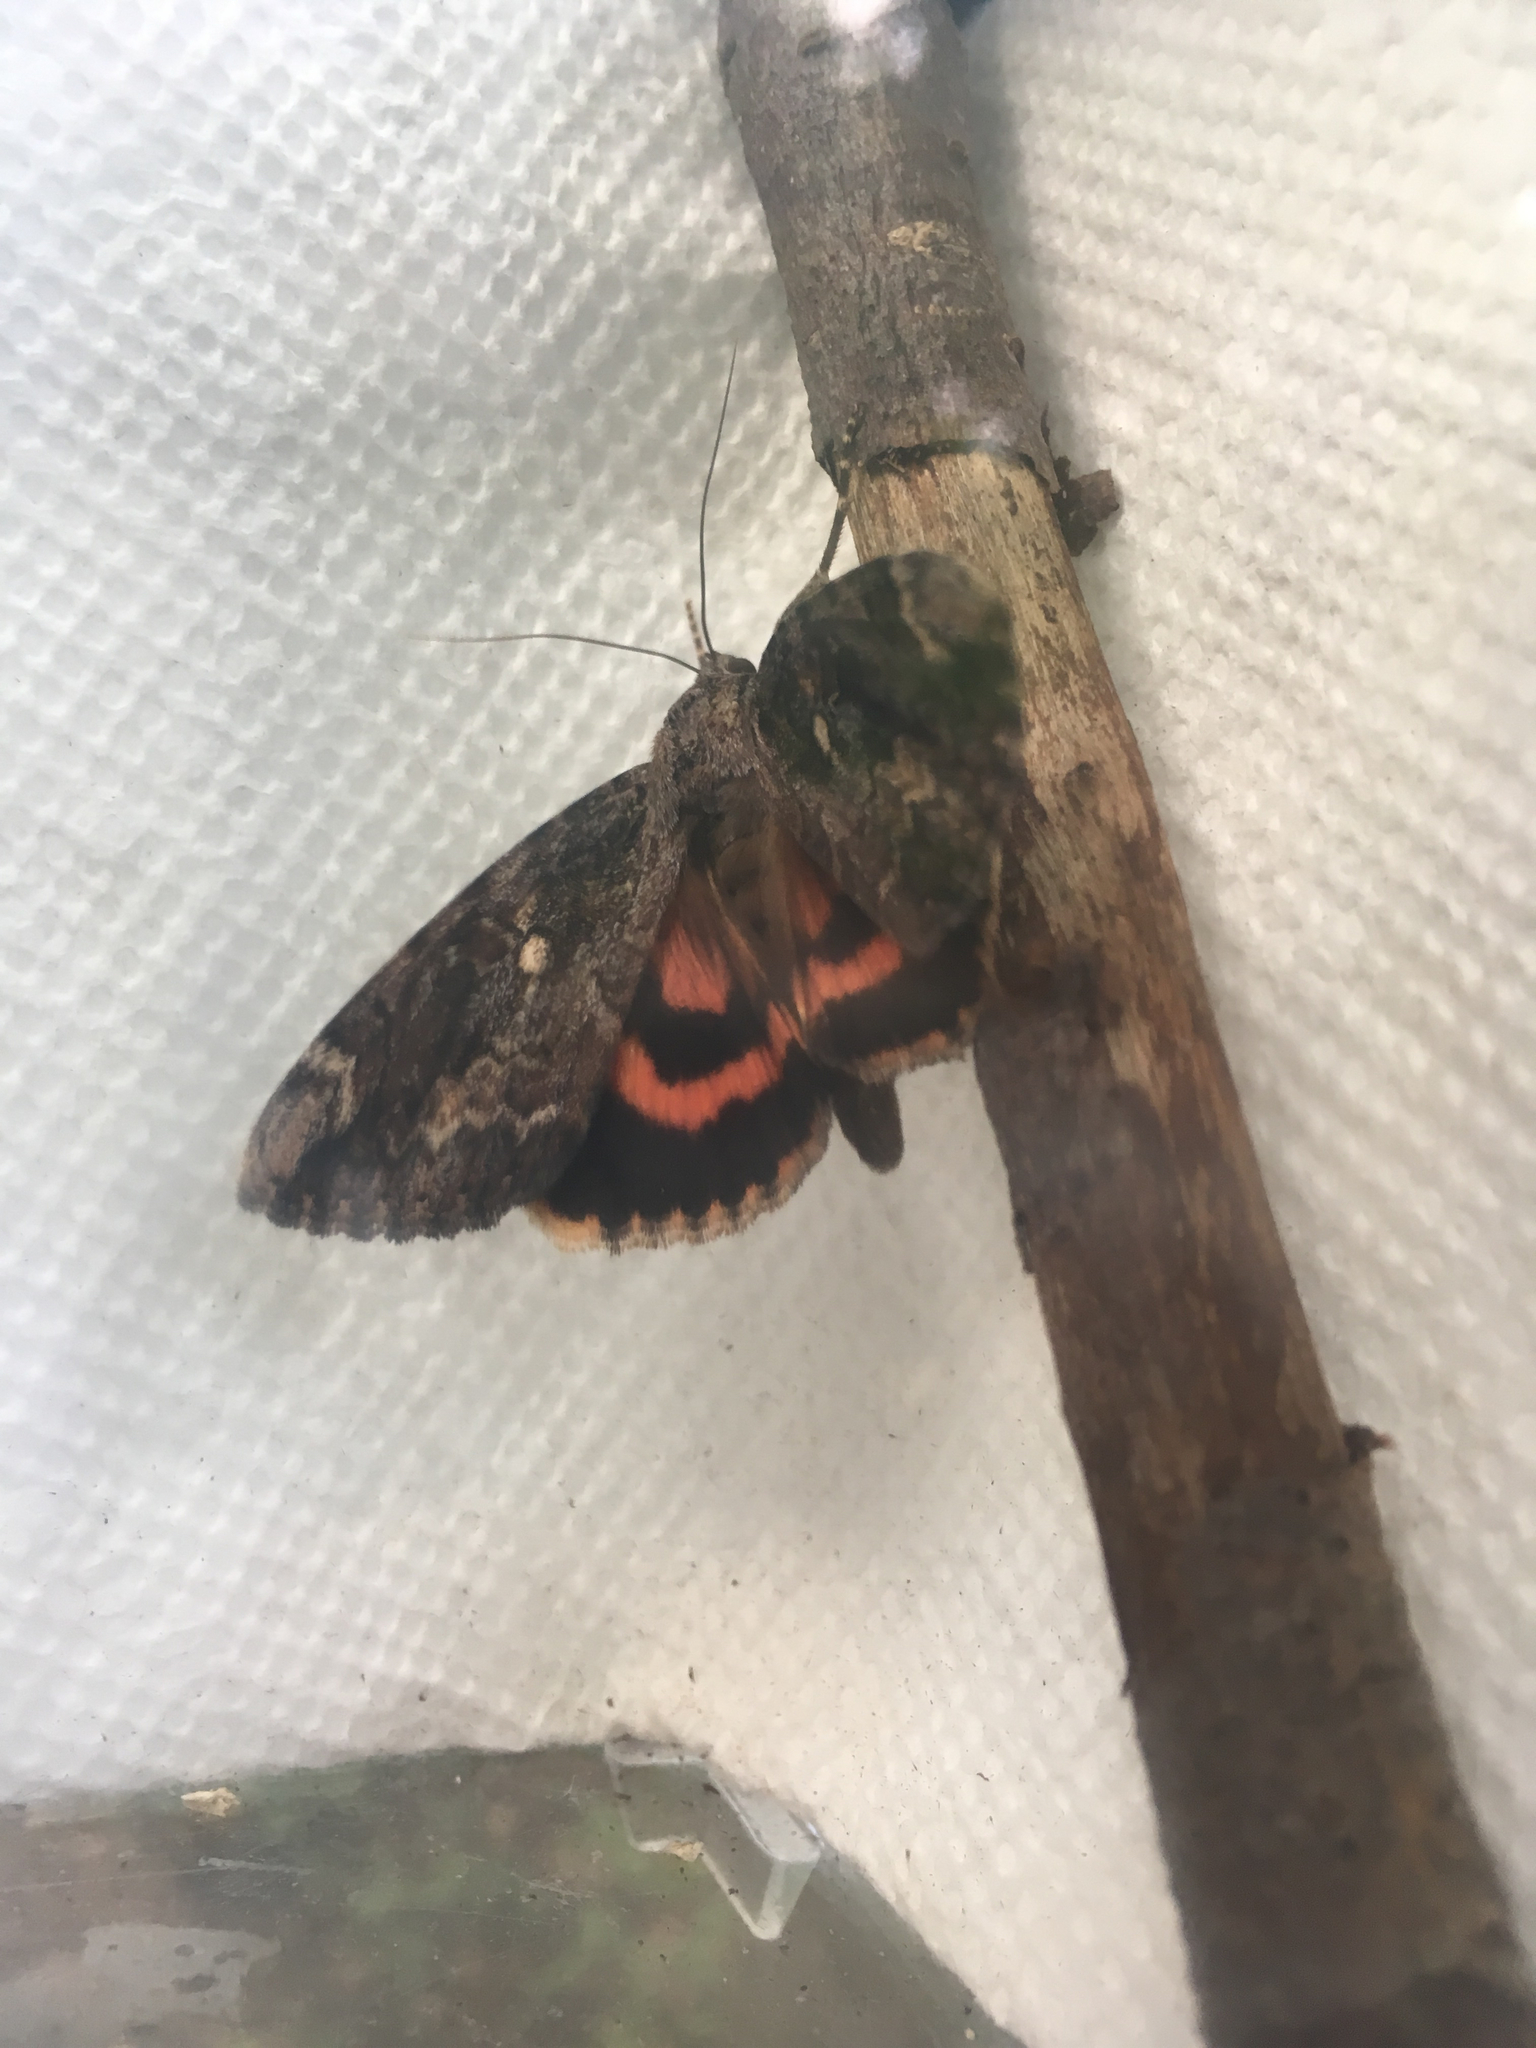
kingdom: Animalia
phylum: Arthropoda
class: Insecta
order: Lepidoptera
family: Erebidae
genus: Catocala
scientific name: Catocala innubens
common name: Betrothed underwing
